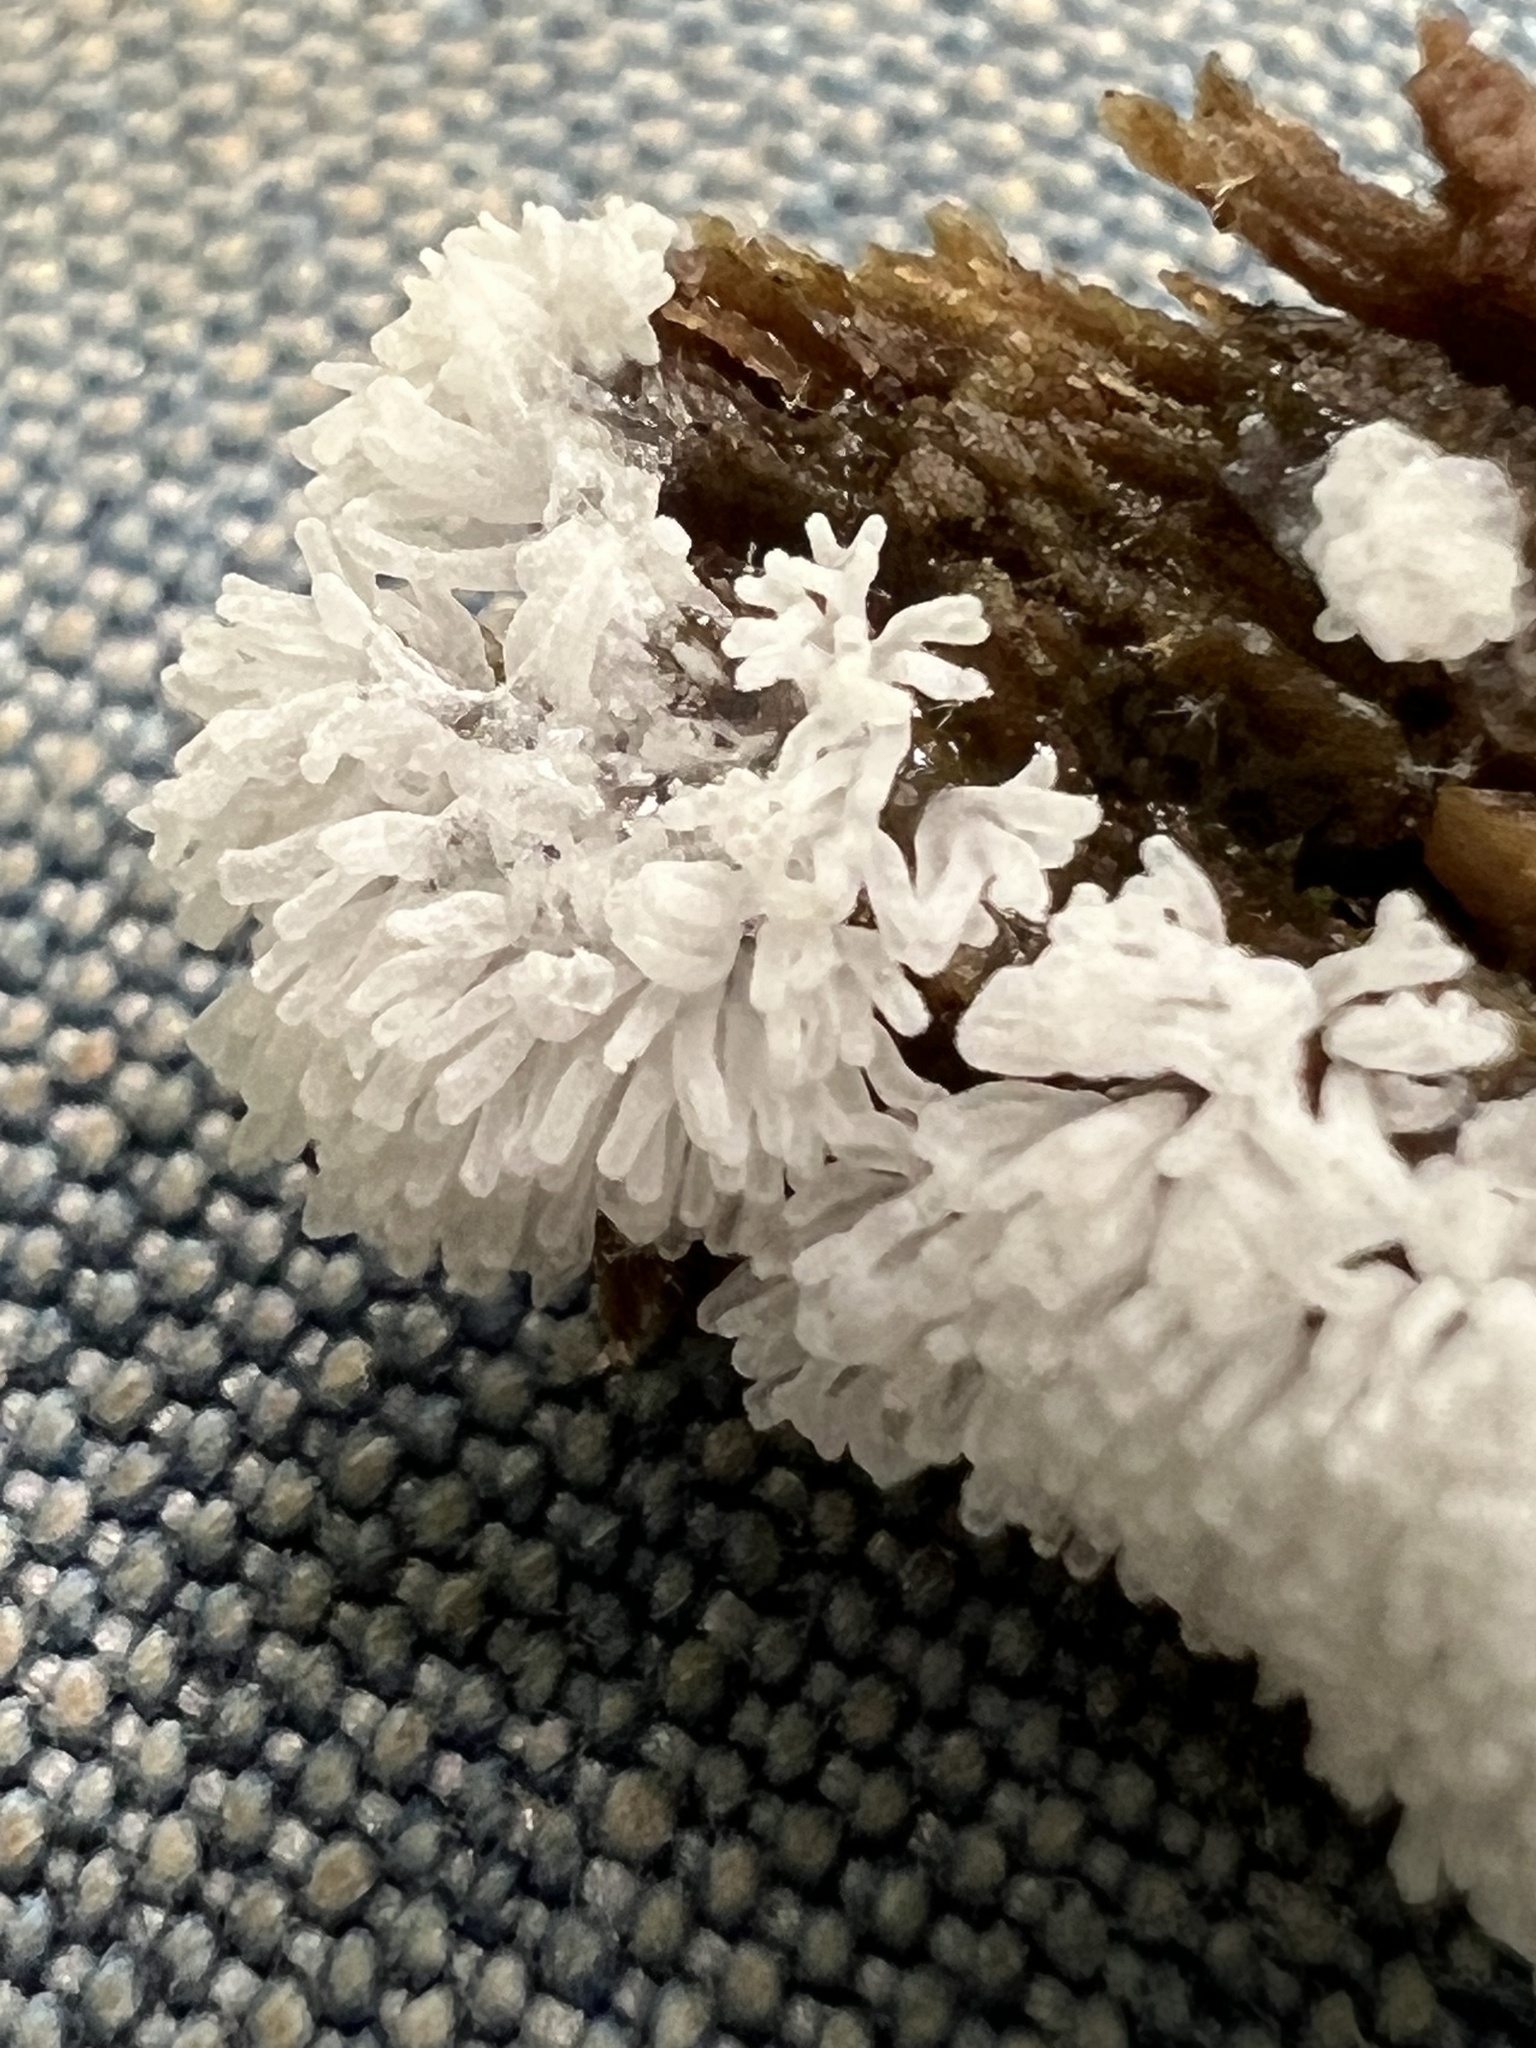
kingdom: Protozoa
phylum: Mycetozoa
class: Protosteliomycetes
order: Ceratiomyxales
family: Ceratiomyxaceae
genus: Ceratiomyxa
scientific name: Ceratiomyxa fruticulosa
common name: Honeycomb coral slime mold
